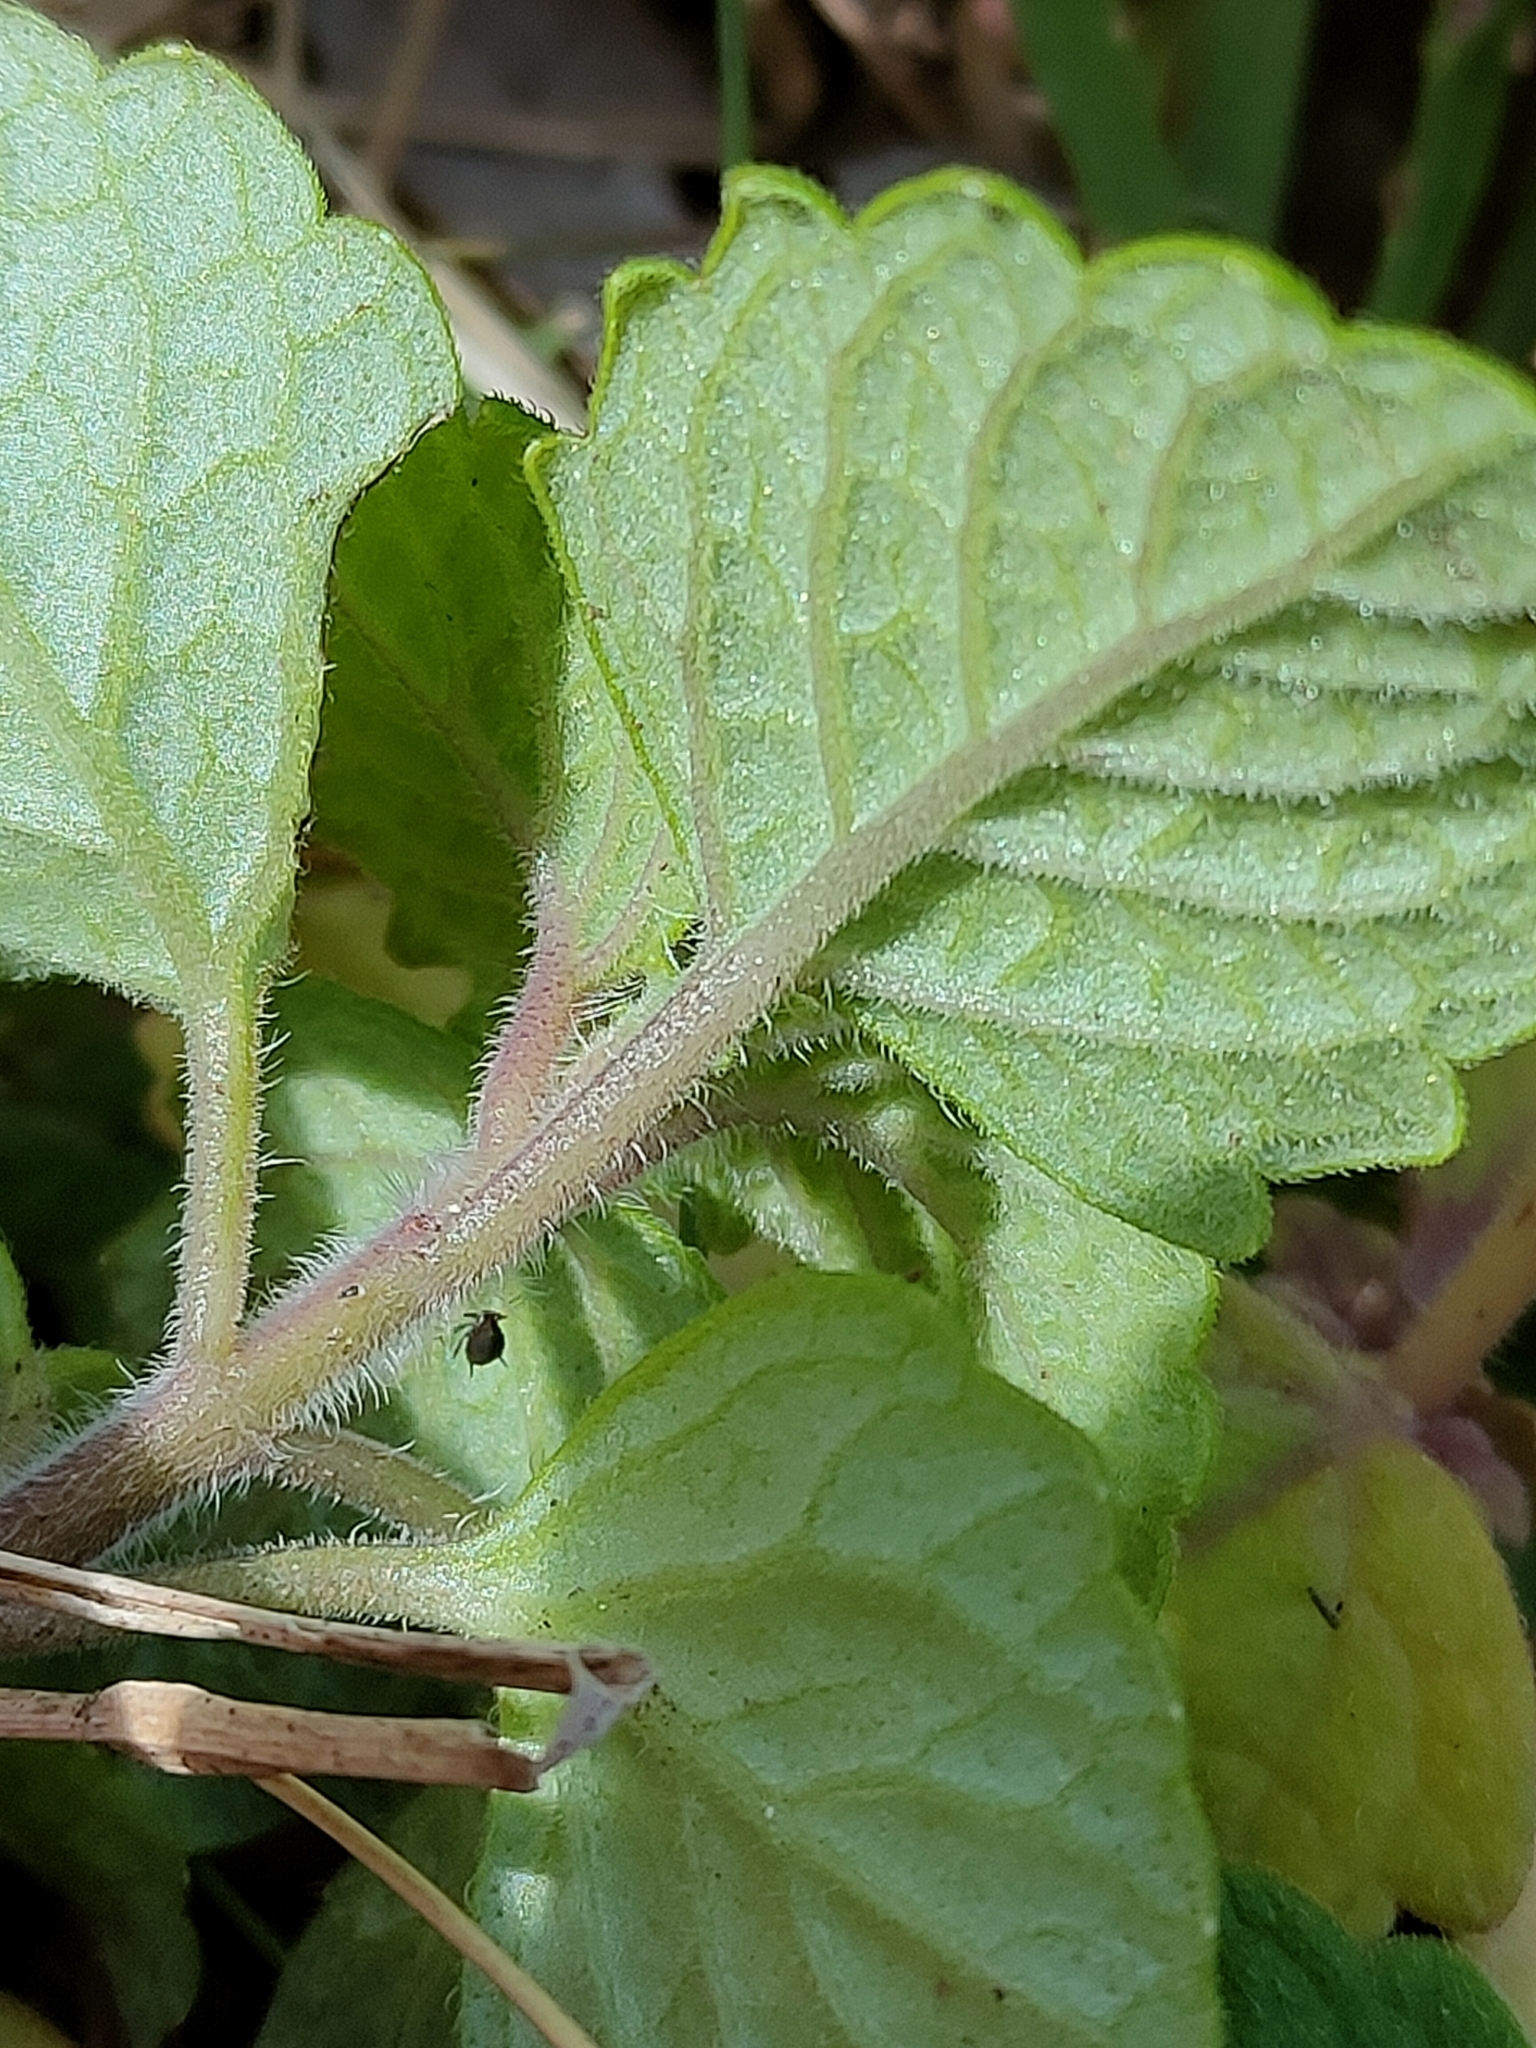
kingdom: Plantae
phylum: Tracheophyta
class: Magnoliopsida
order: Lamiales
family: Lamiaceae
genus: Coleus
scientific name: Coleus australis
